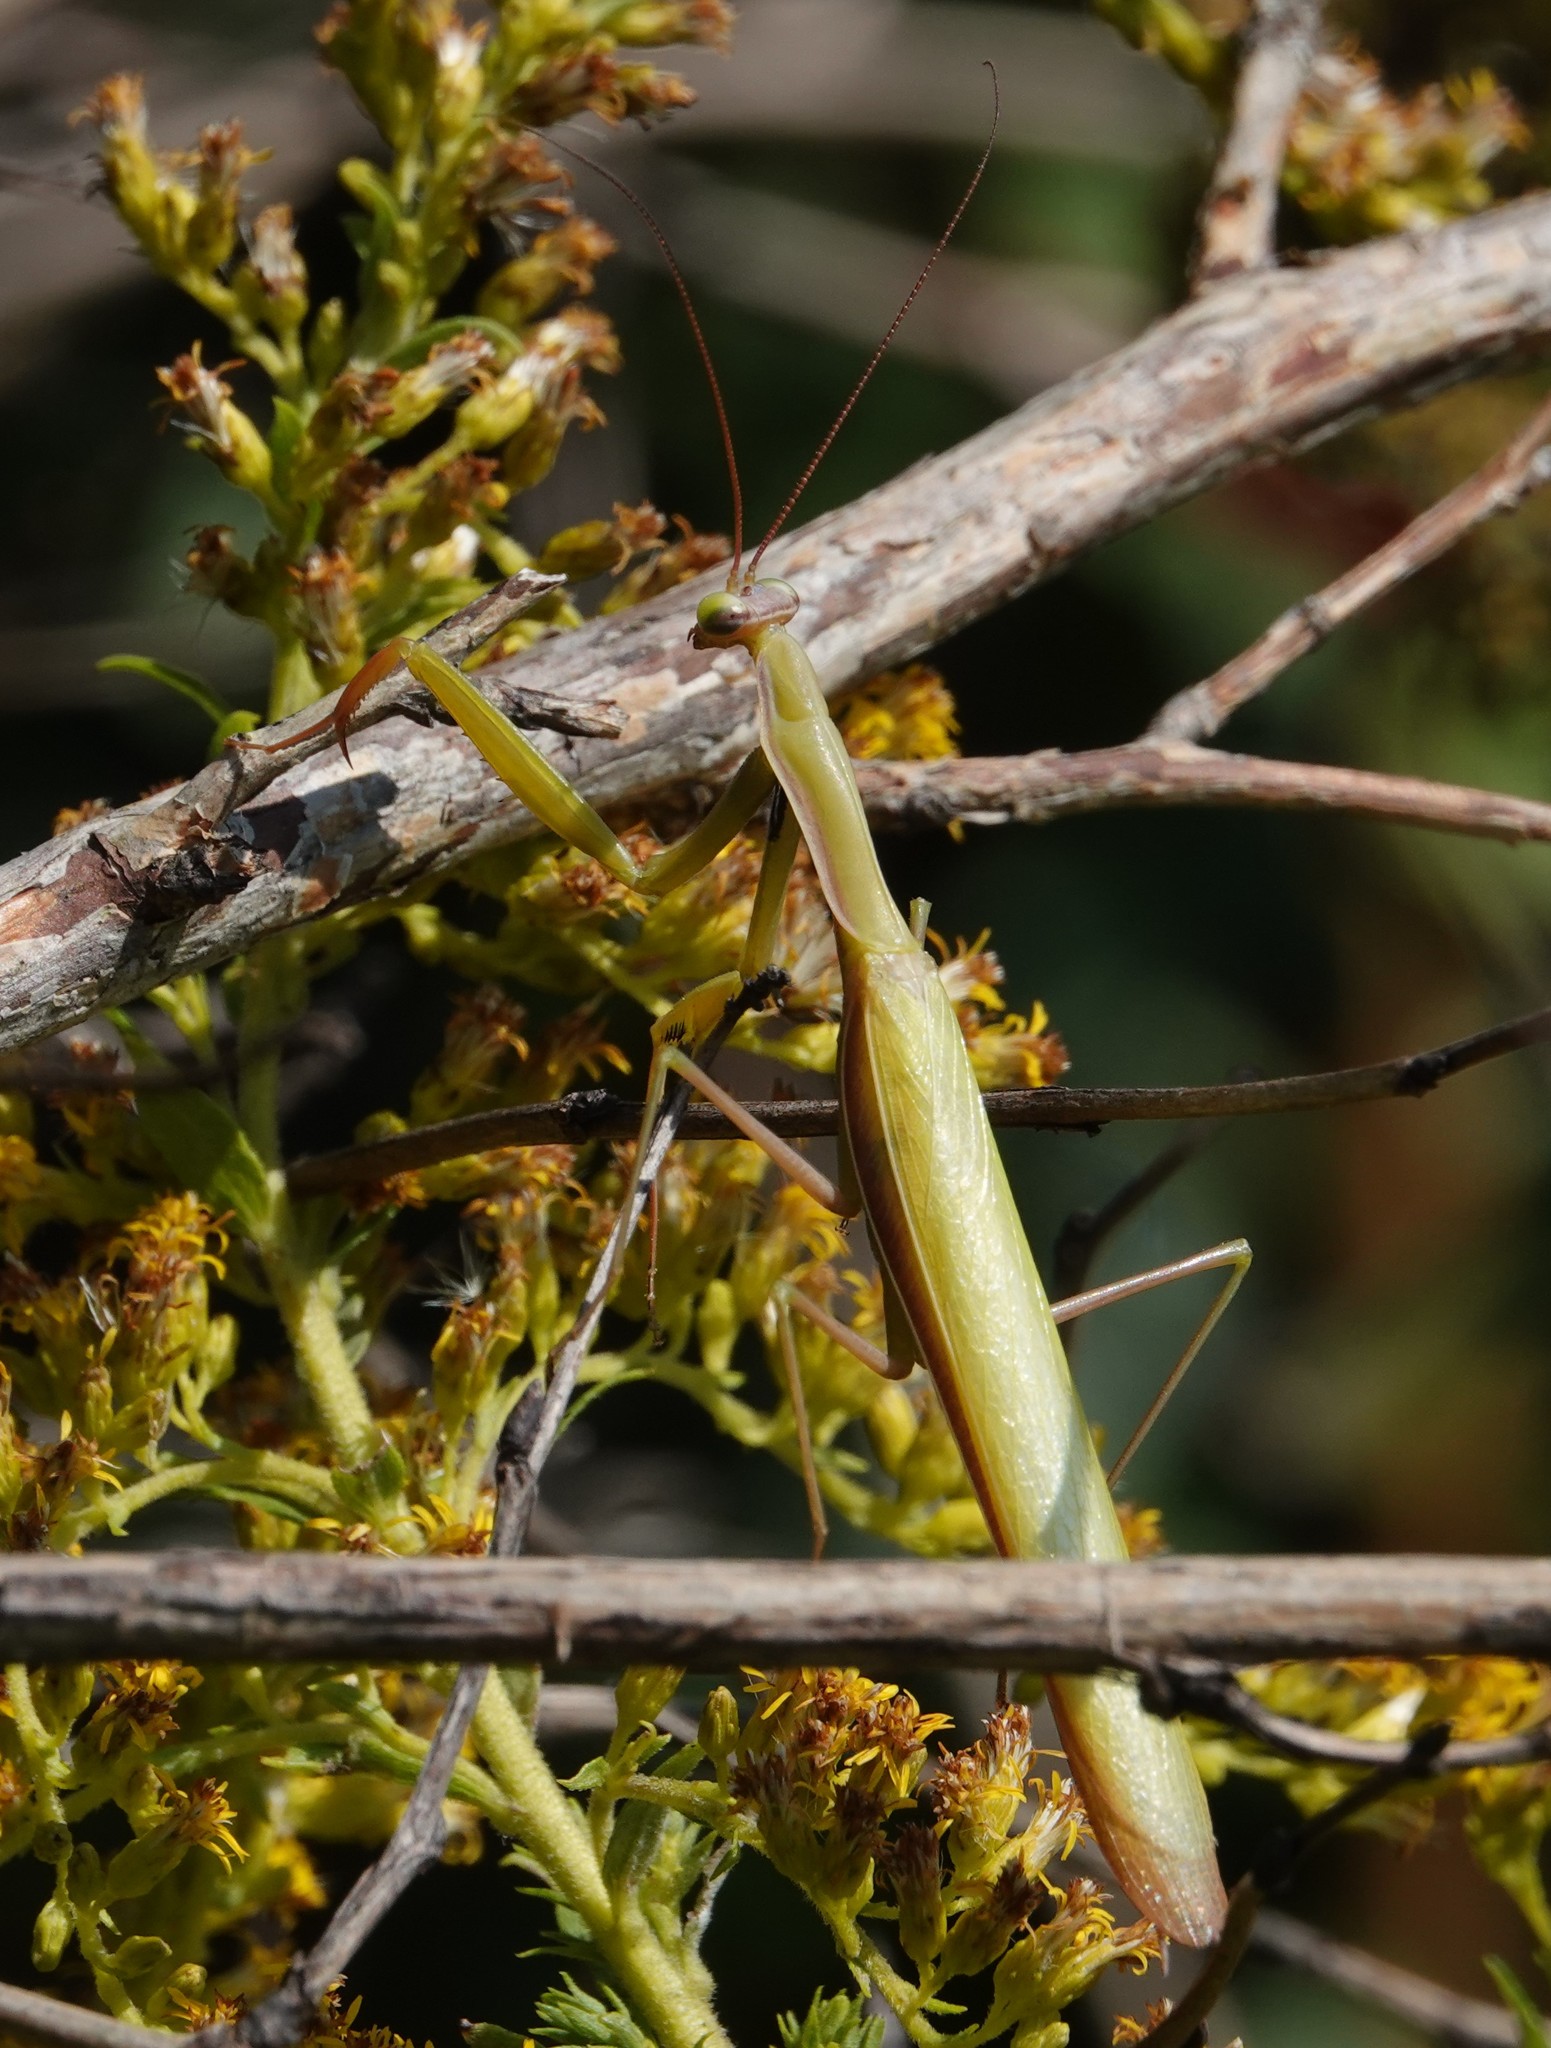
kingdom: Animalia
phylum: Arthropoda
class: Insecta
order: Mantodea
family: Mantidae
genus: Mantis
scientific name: Mantis religiosa
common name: Praying mantis
